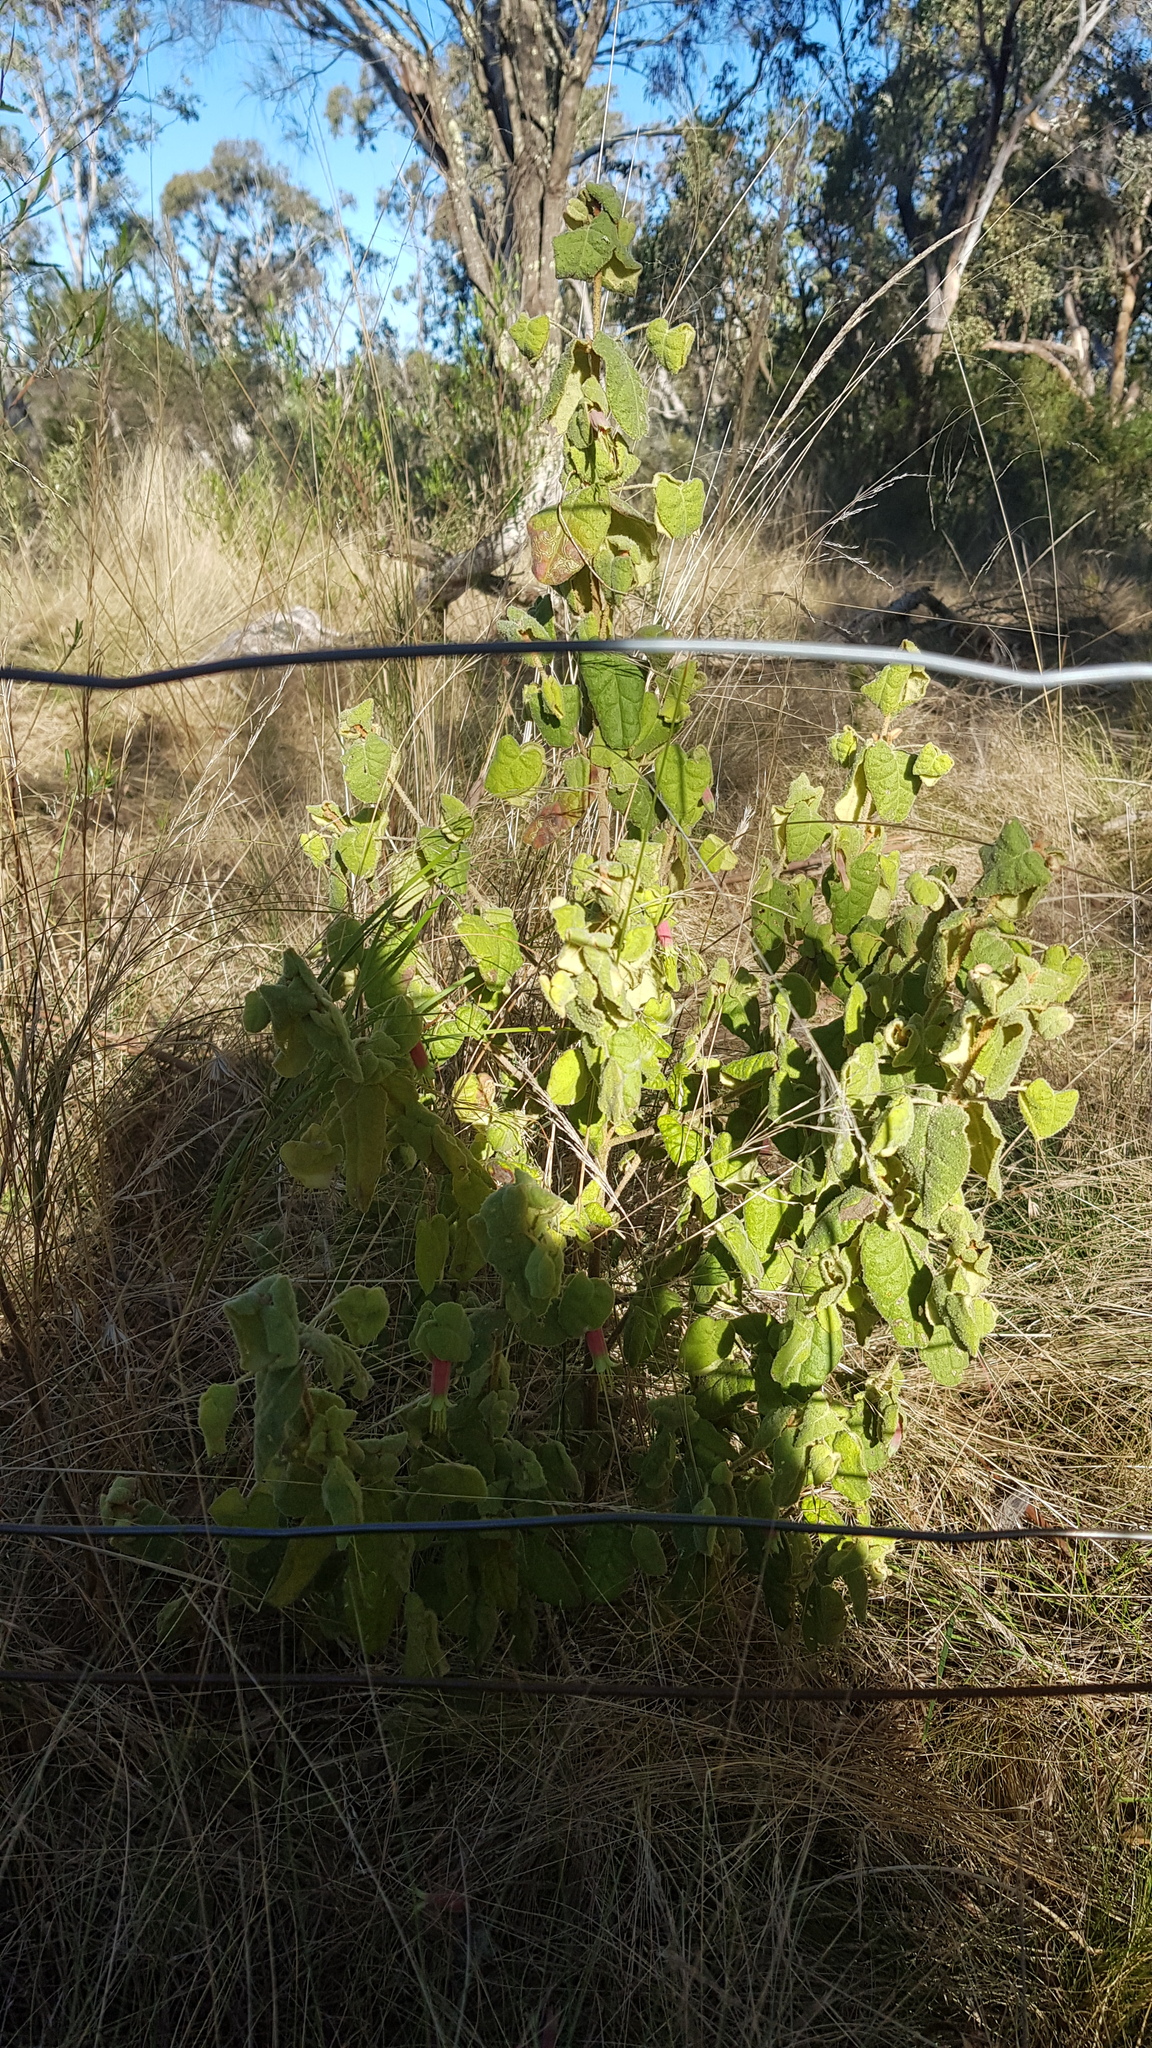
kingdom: Plantae
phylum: Tracheophyta
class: Magnoliopsida
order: Sapindales
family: Rutaceae
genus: Correa
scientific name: Correa reflexa
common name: Common correa
